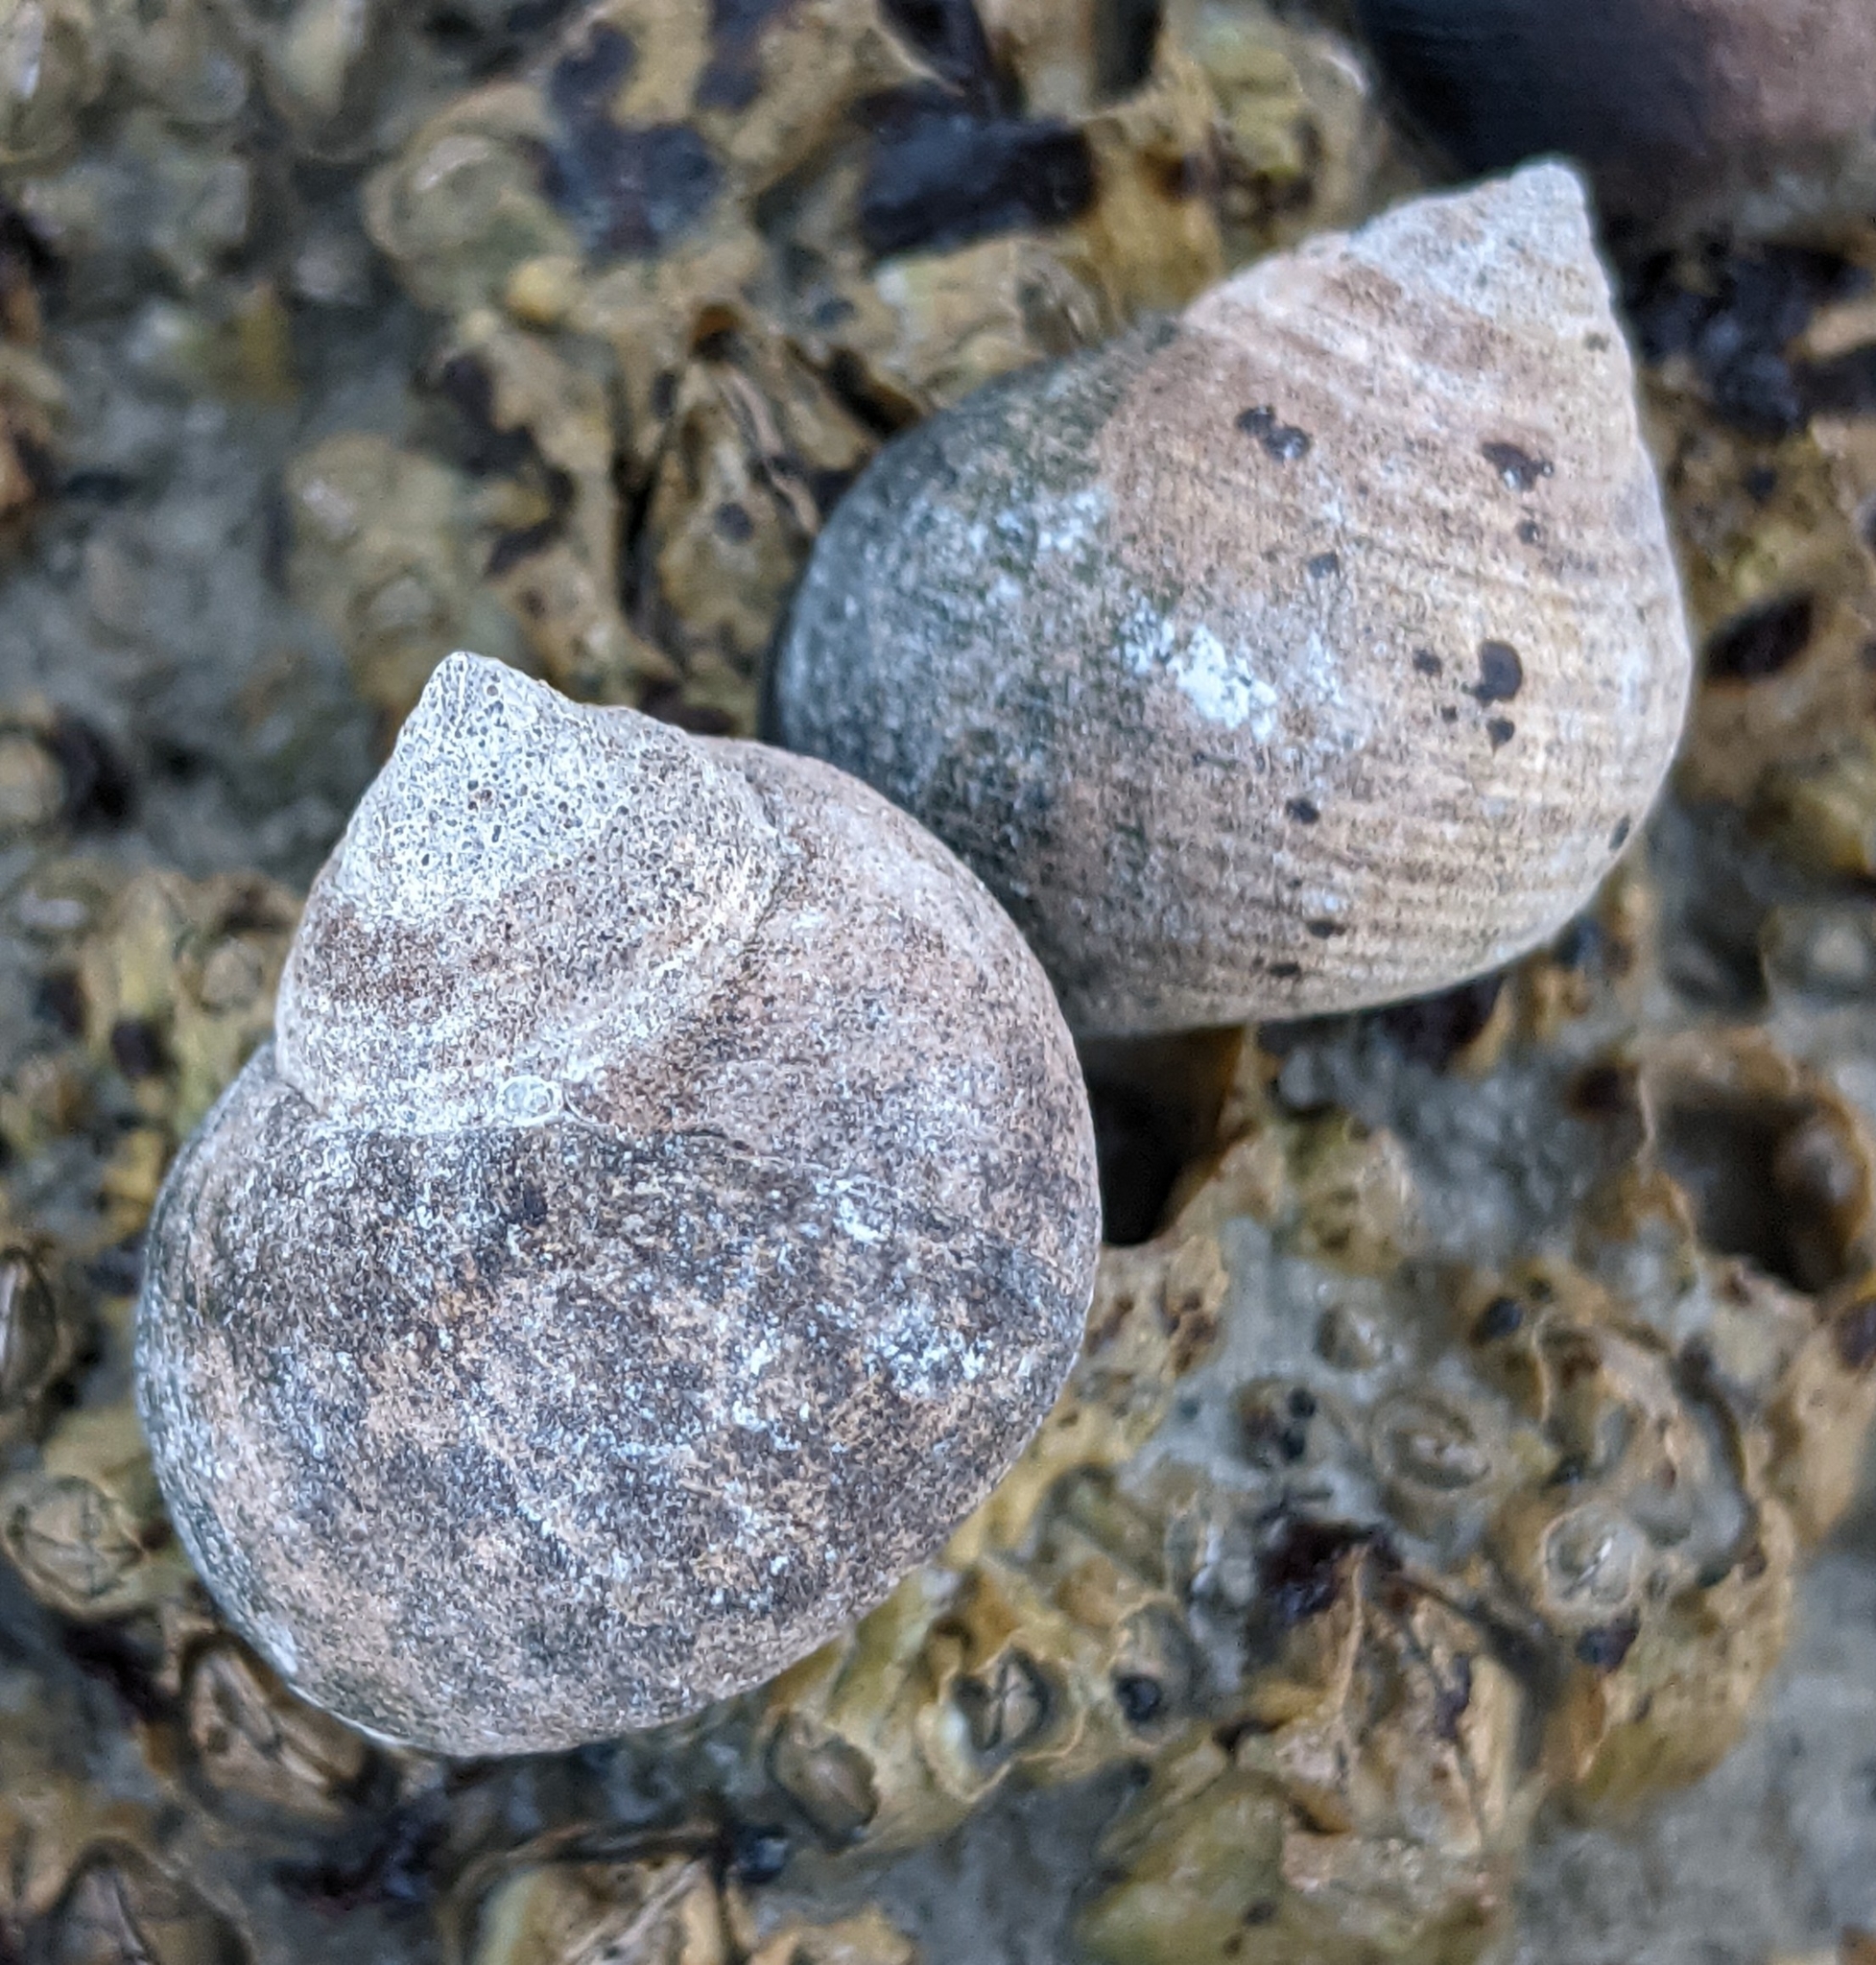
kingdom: Animalia
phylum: Mollusca
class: Gastropoda
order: Littorinimorpha
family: Littorinidae
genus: Littorina
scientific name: Littorina littorea
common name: Common periwinkle
